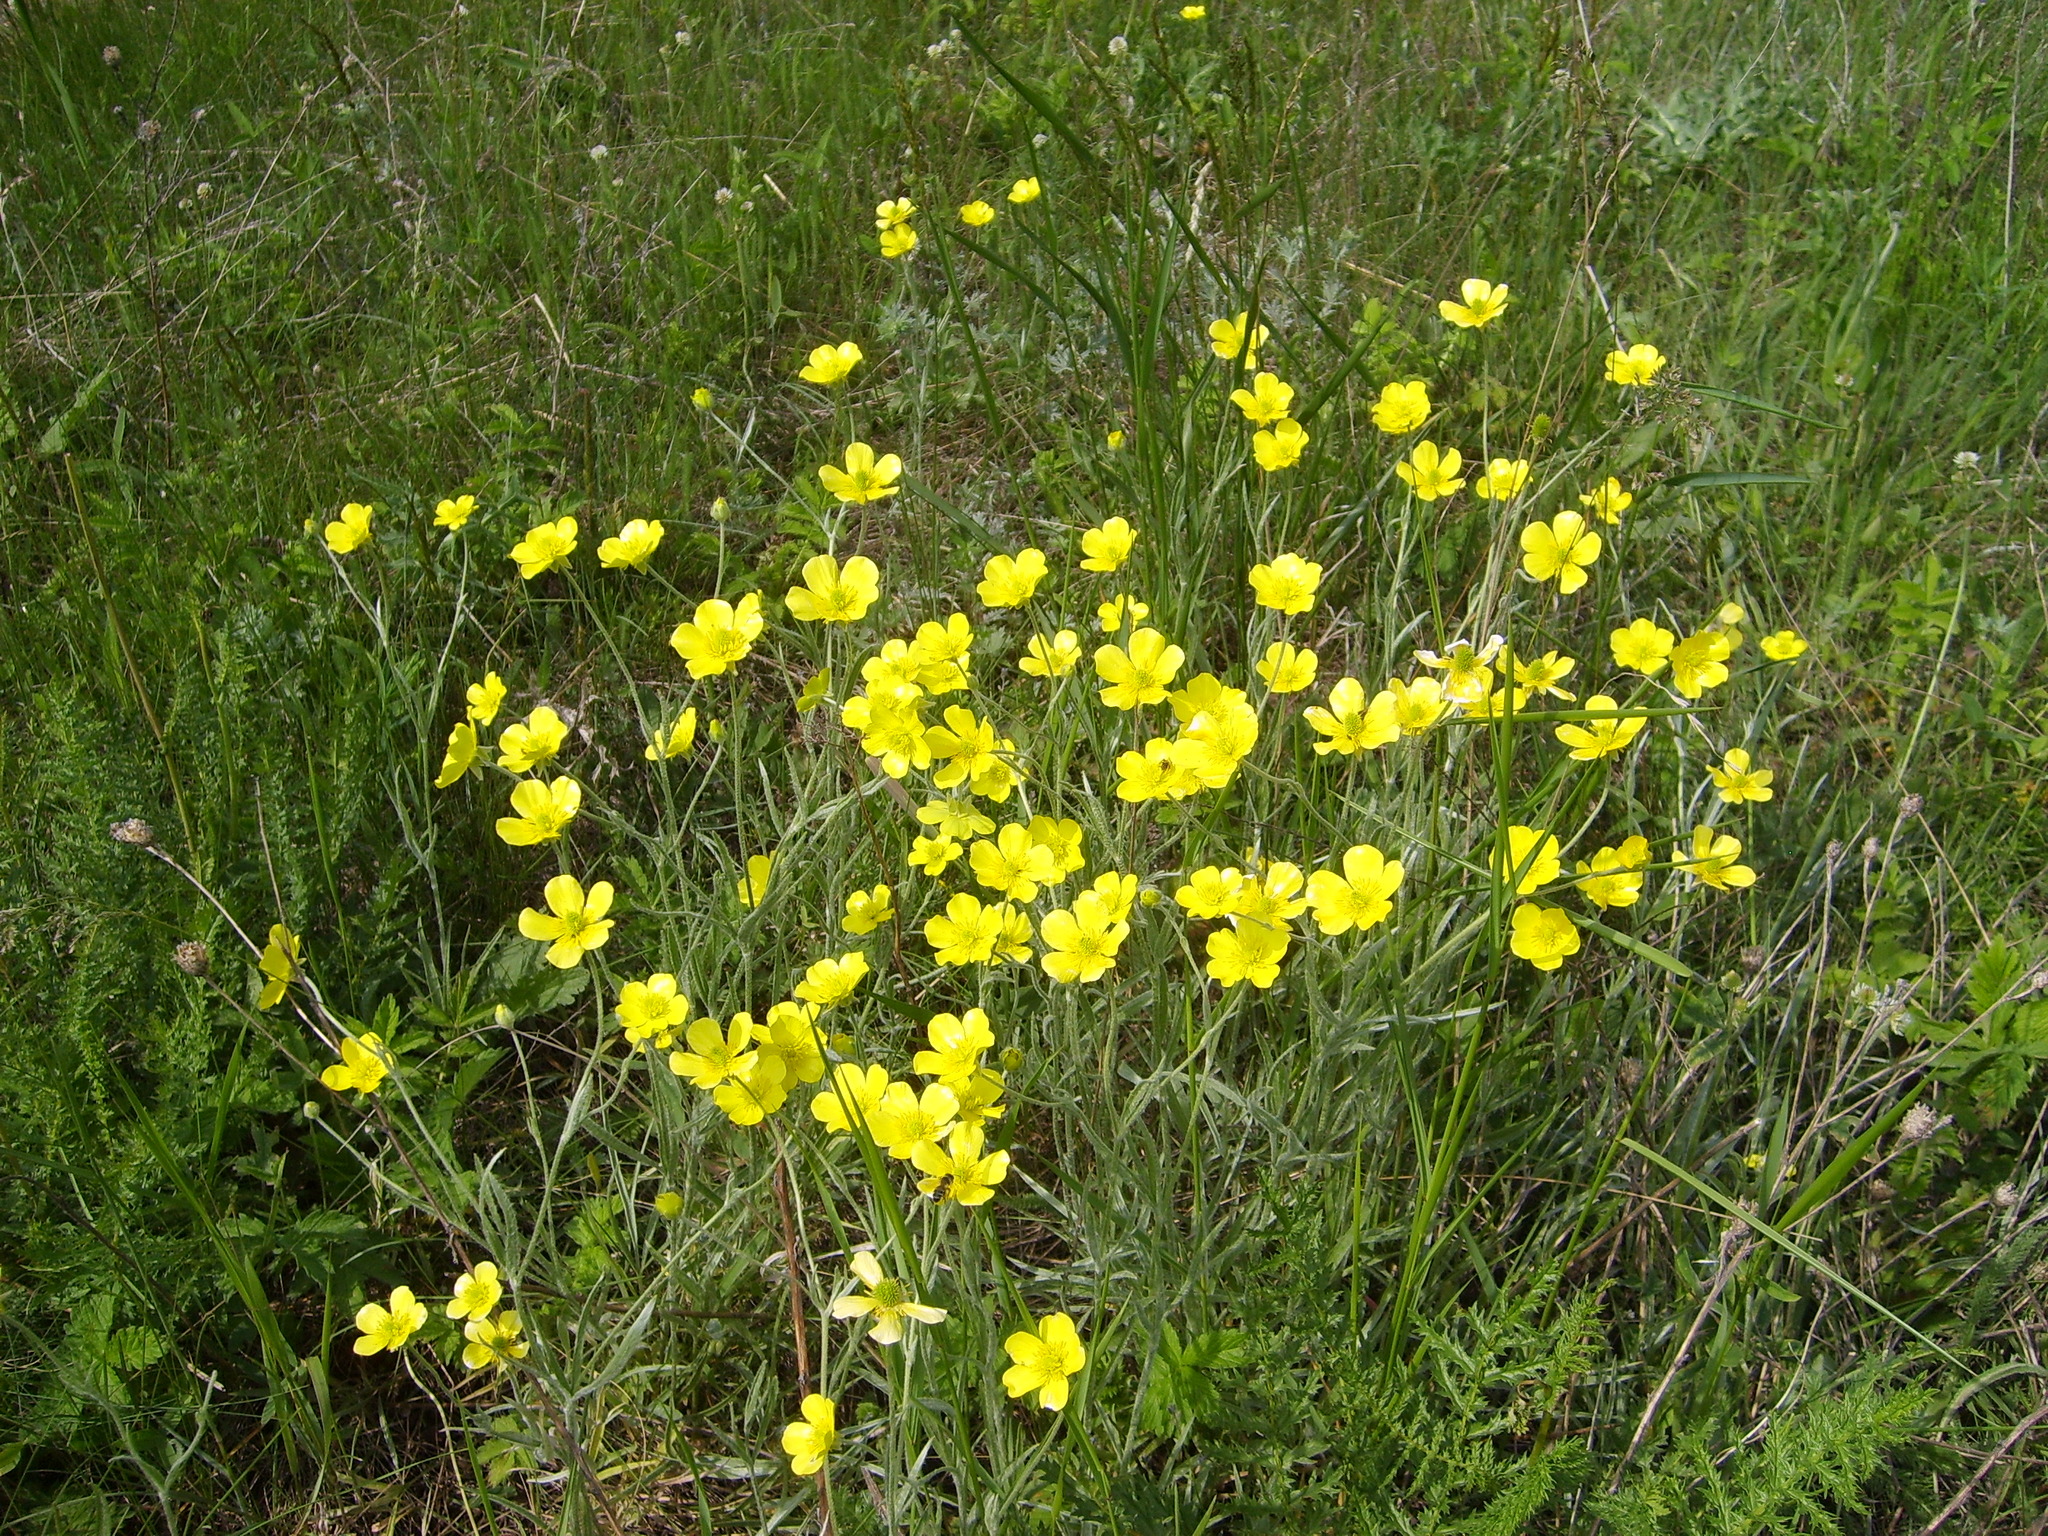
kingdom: Plantae
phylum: Tracheophyta
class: Magnoliopsida
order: Ranunculales
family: Ranunculaceae
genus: Ranunculus
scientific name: Ranunculus illyricus
